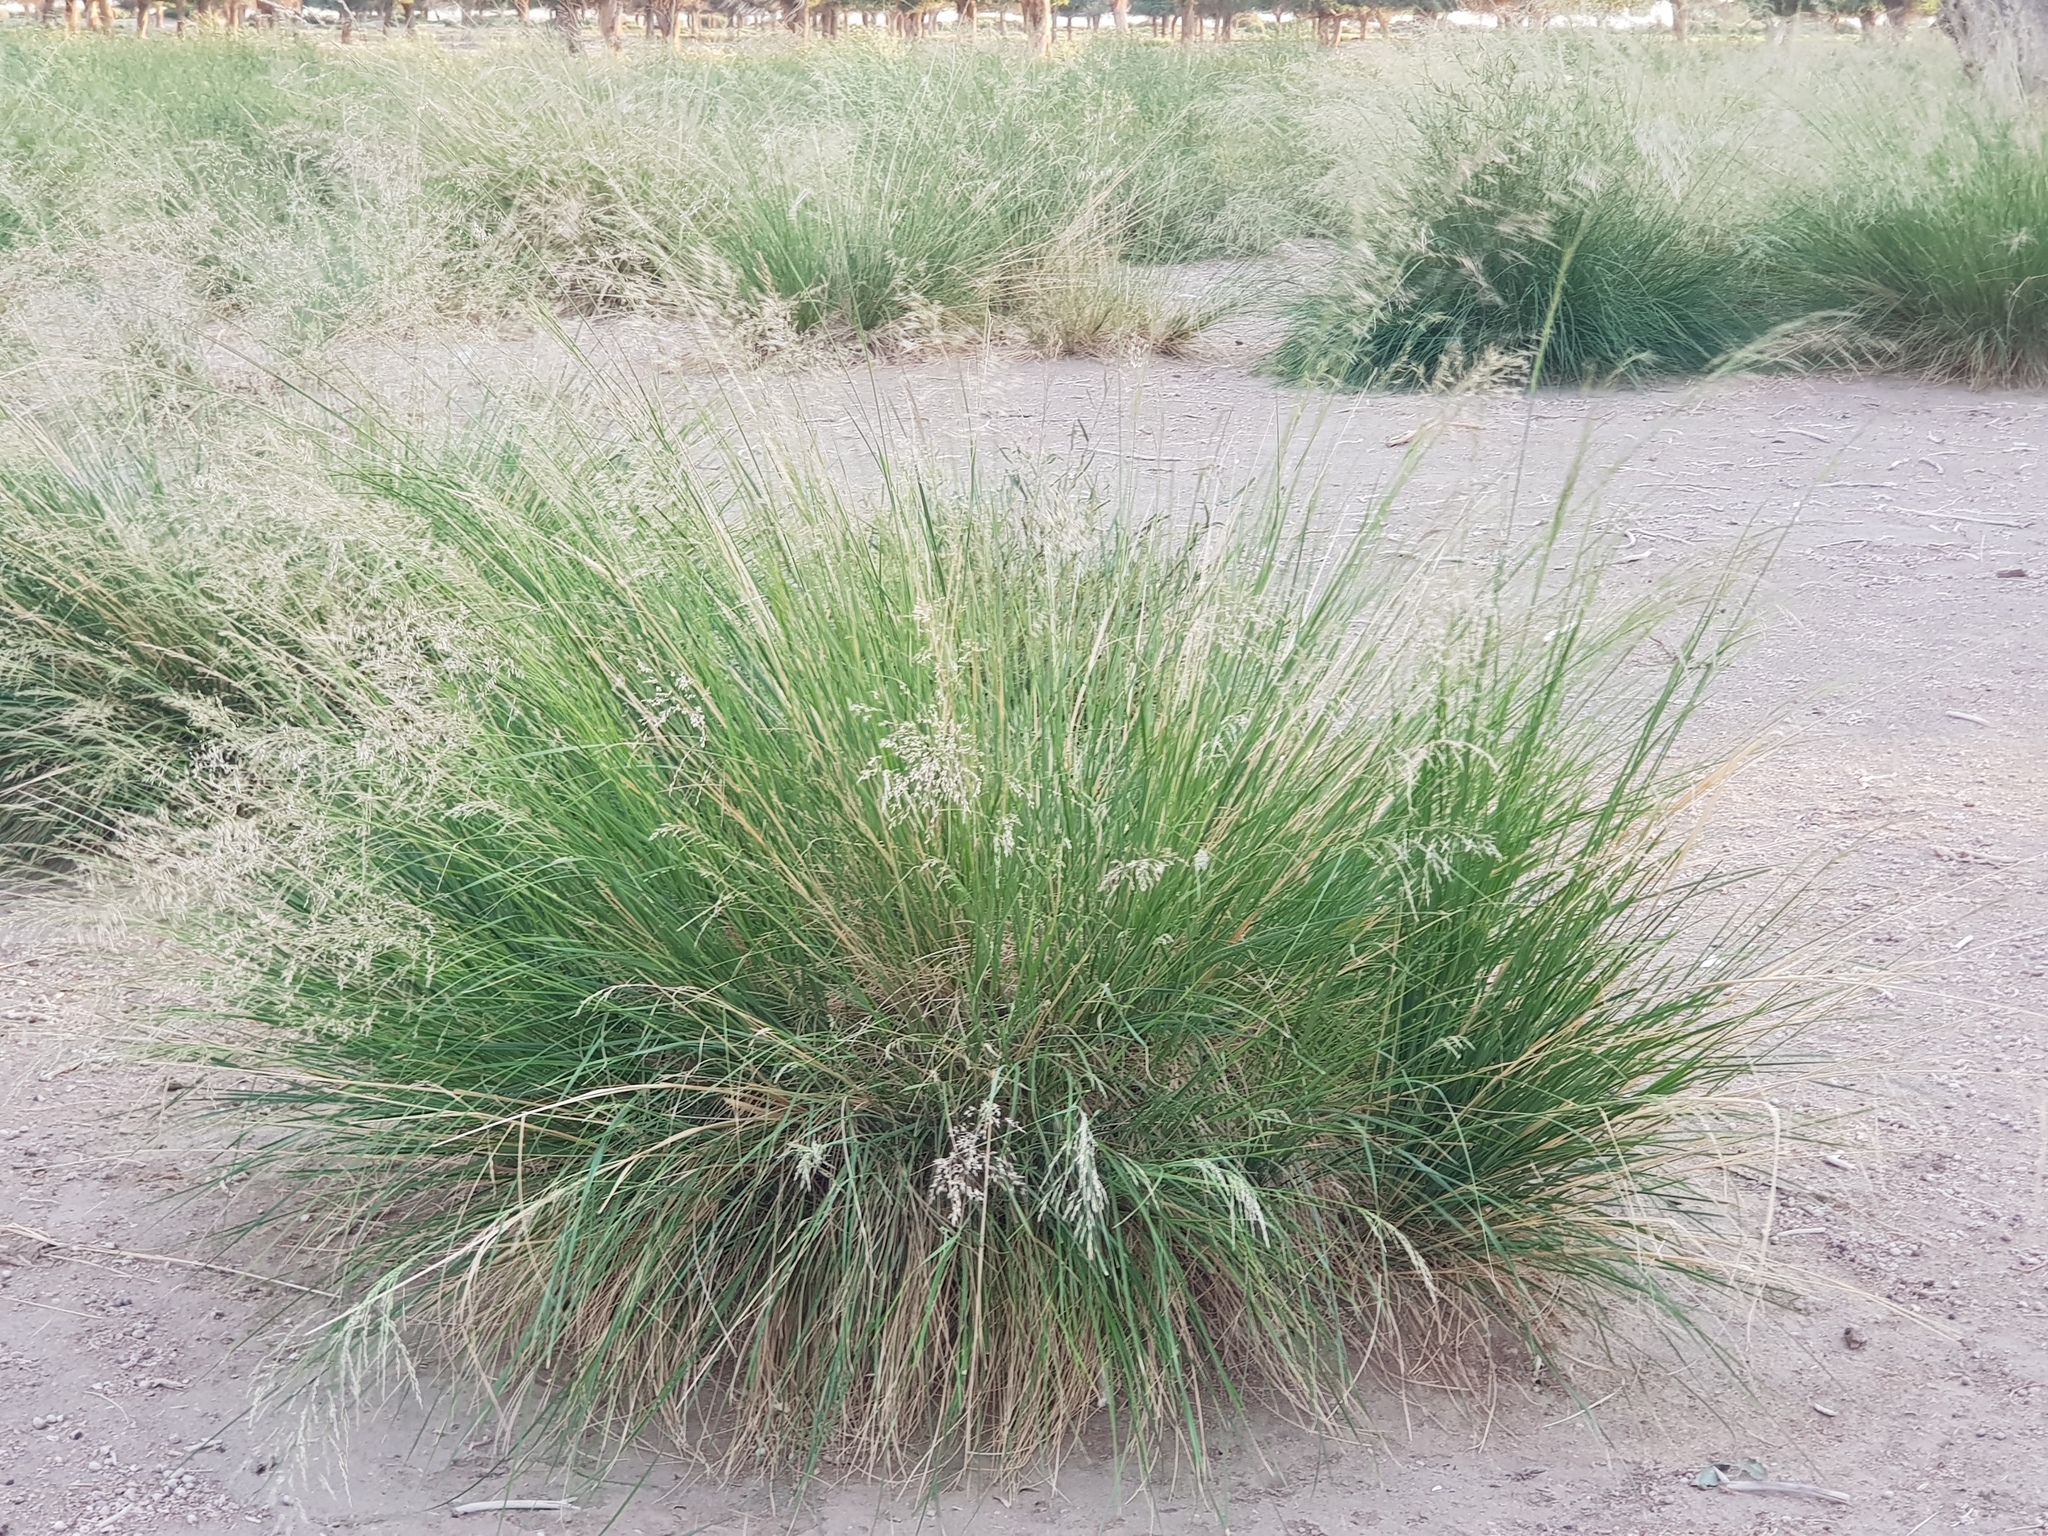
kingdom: Plantae
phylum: Tracheophyta
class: Liliopsida
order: Poales
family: Poaceae
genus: Neotrinia
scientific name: Neotrinia splendens
